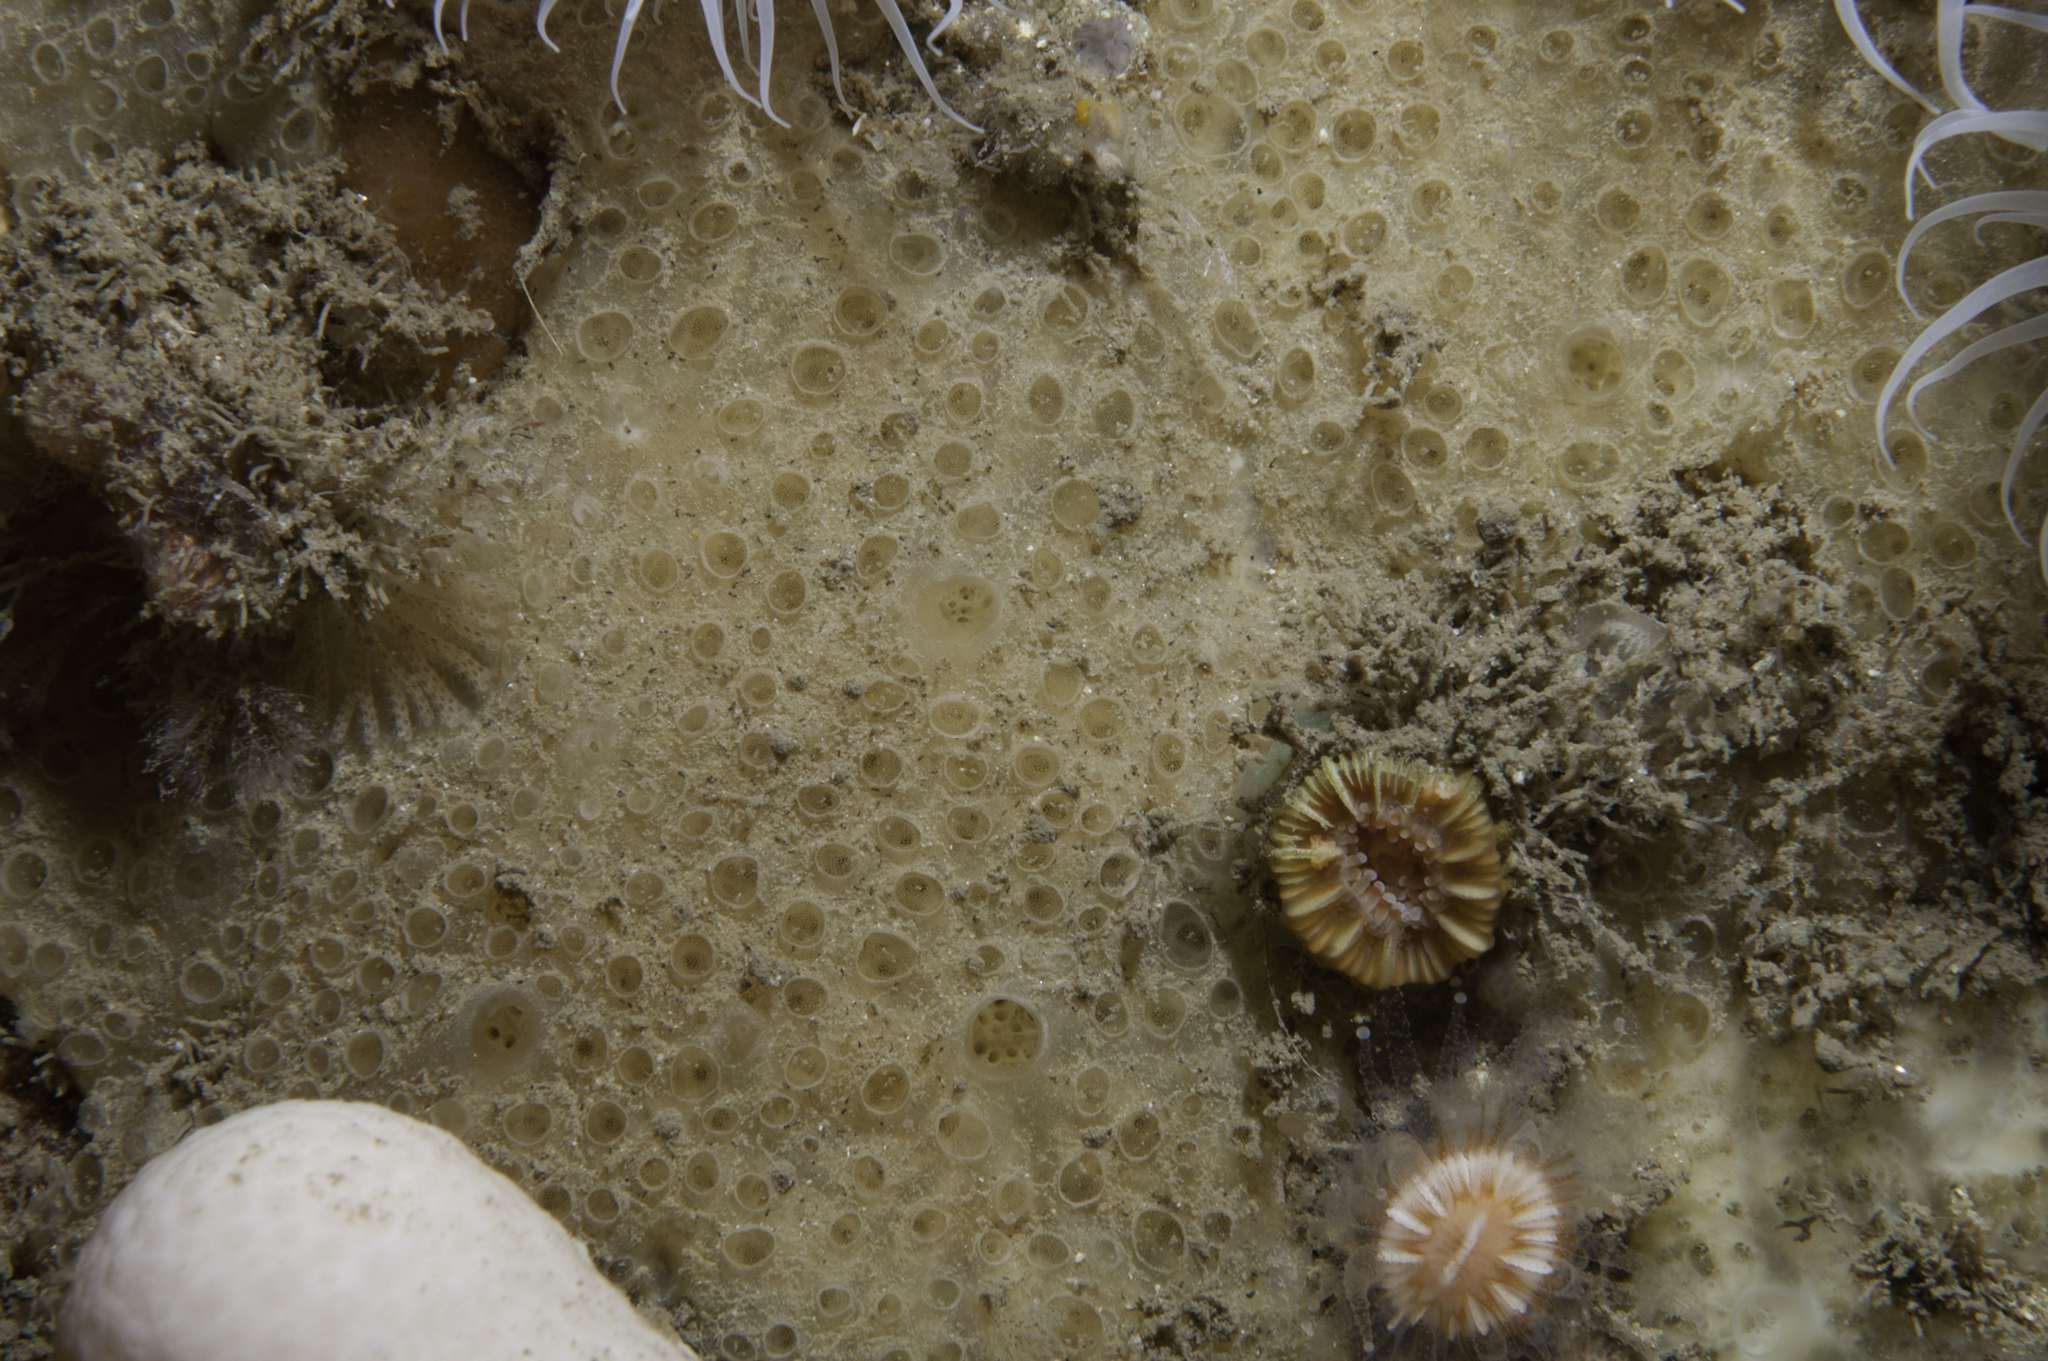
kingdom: Animalia
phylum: Porifera
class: Demospongiae
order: Poecilosclerida
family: Hymedesmiidae
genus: Hymedesmia
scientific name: Hymedesmia pansa
